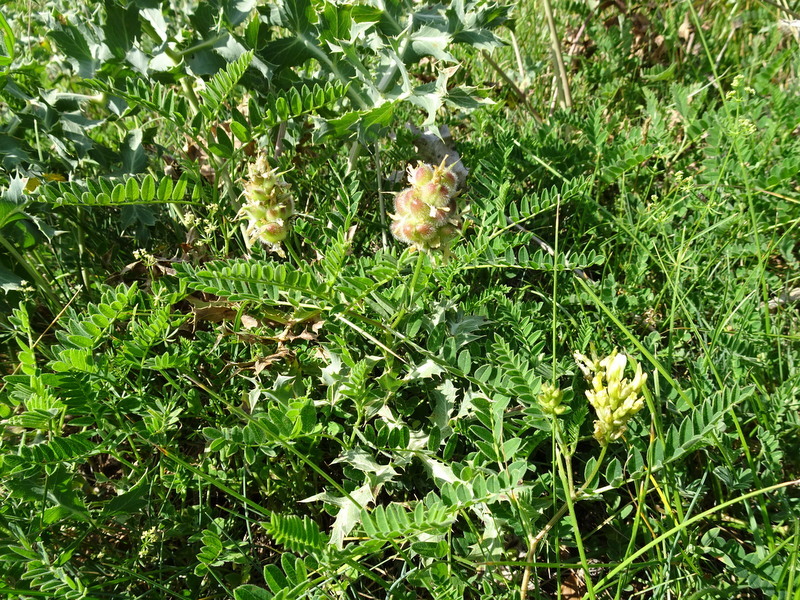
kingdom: Plantae
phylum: Tracheophyta
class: Magnoliopsida
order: Fabales
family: Fabaceae
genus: Astragalus
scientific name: Astragalus cicer
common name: Chick-pea milk-vetch
